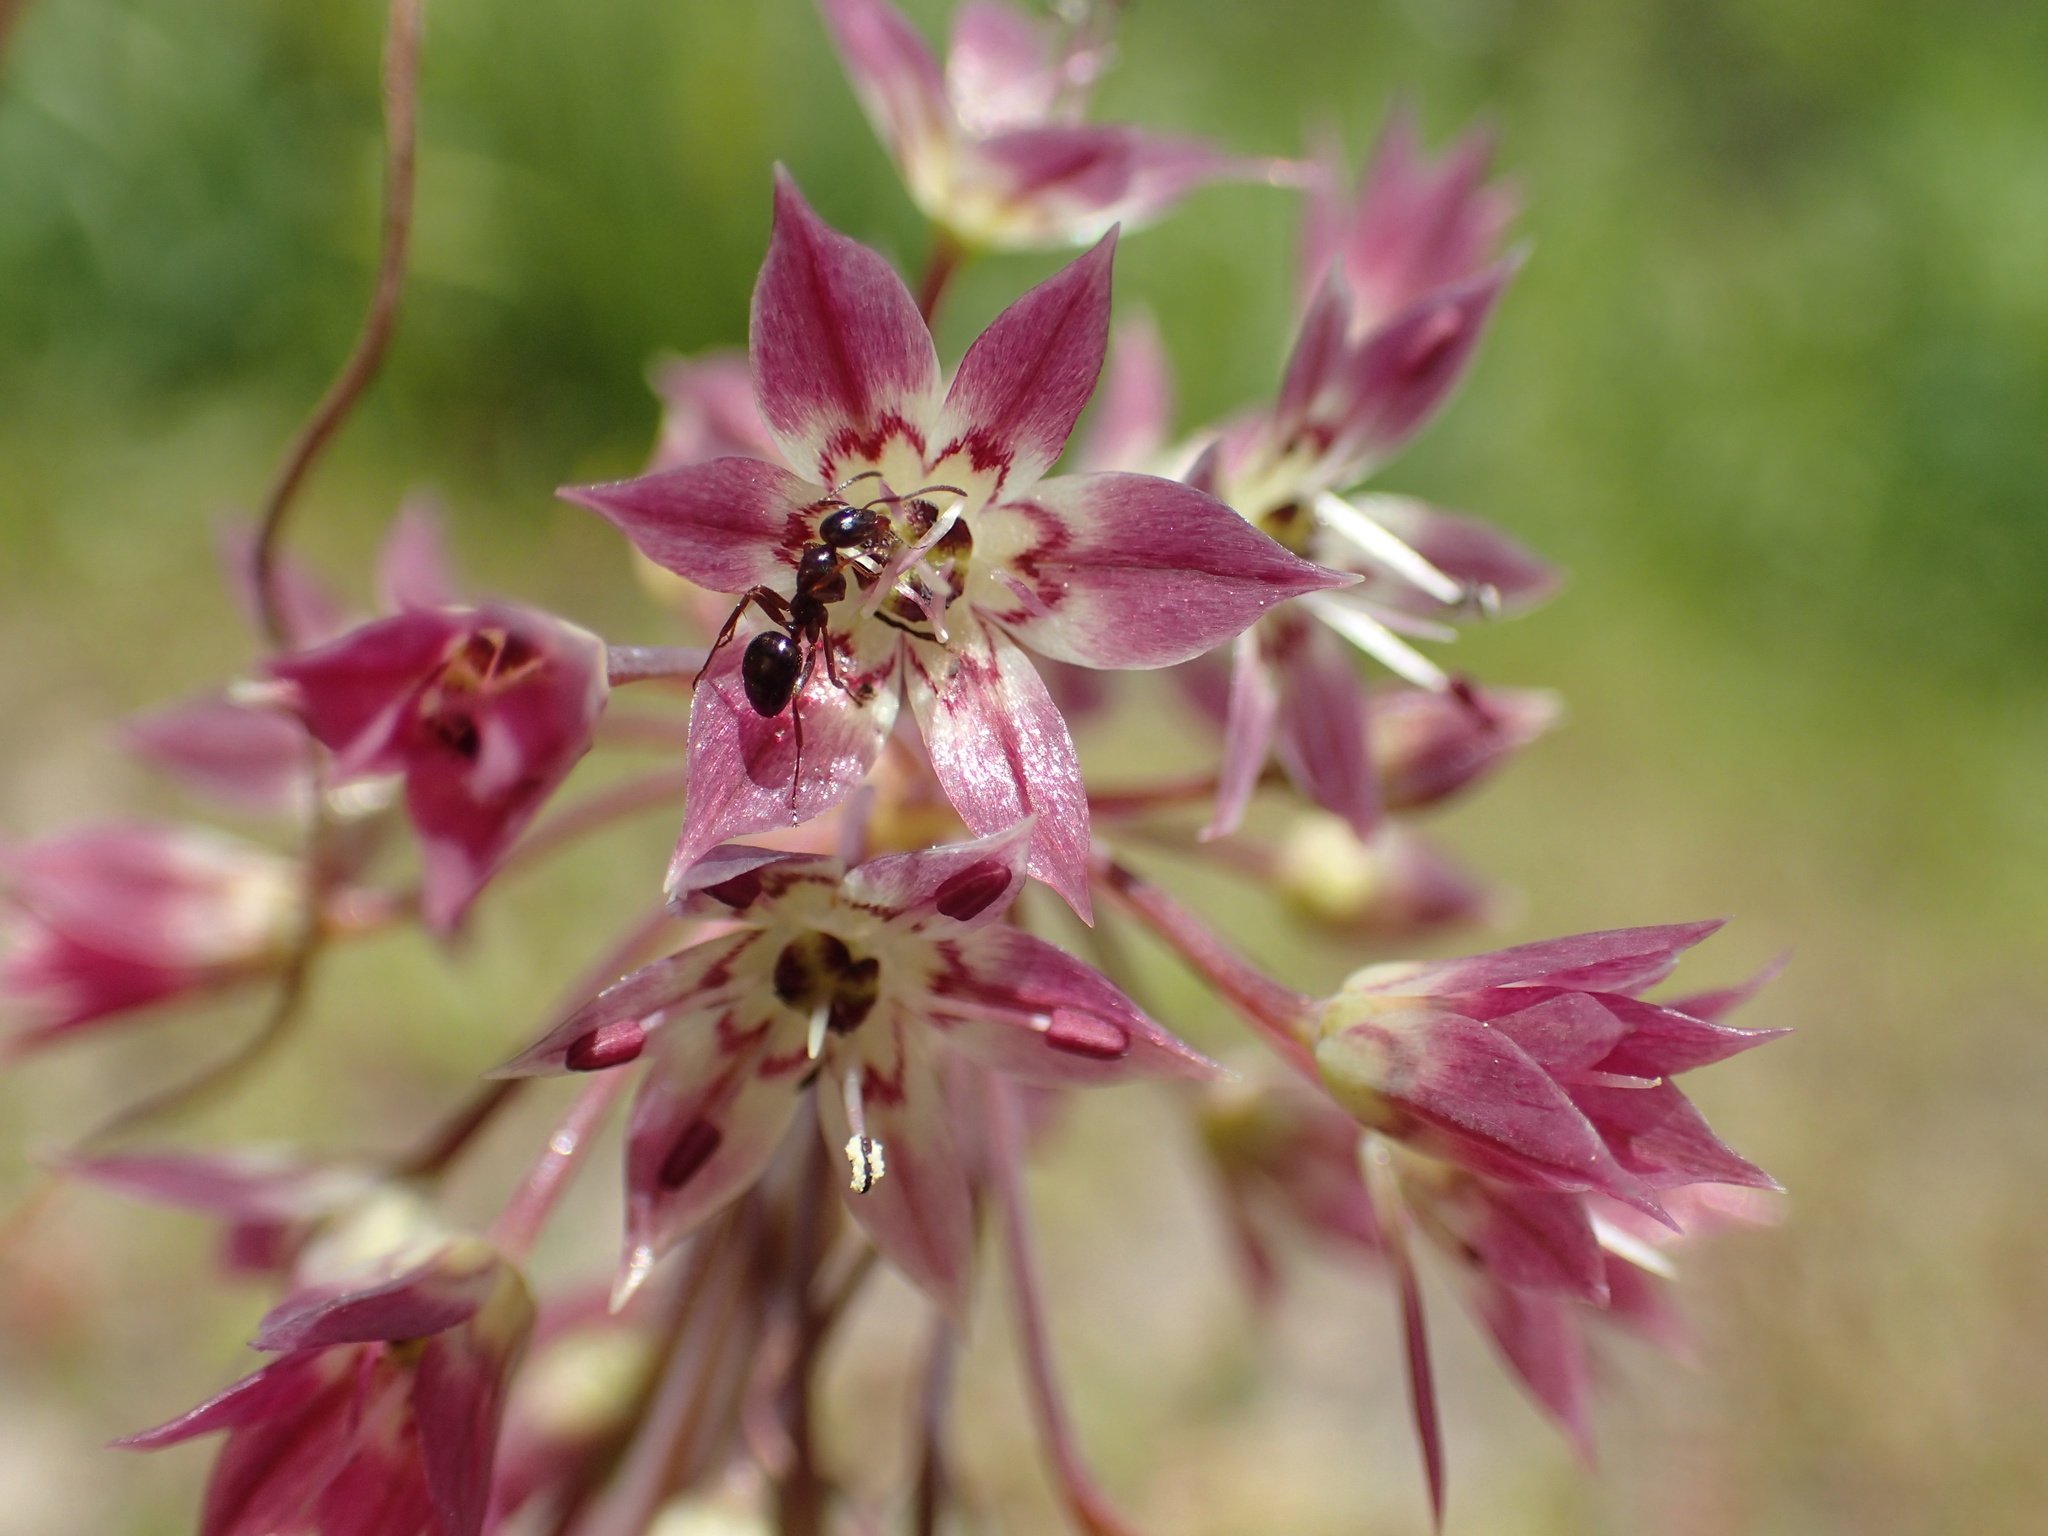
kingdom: Plantae
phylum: Tracheophyta
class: Liliopsida
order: Asparagales
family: Amaryllidaceae
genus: Allium
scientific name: Allium campanulatum
